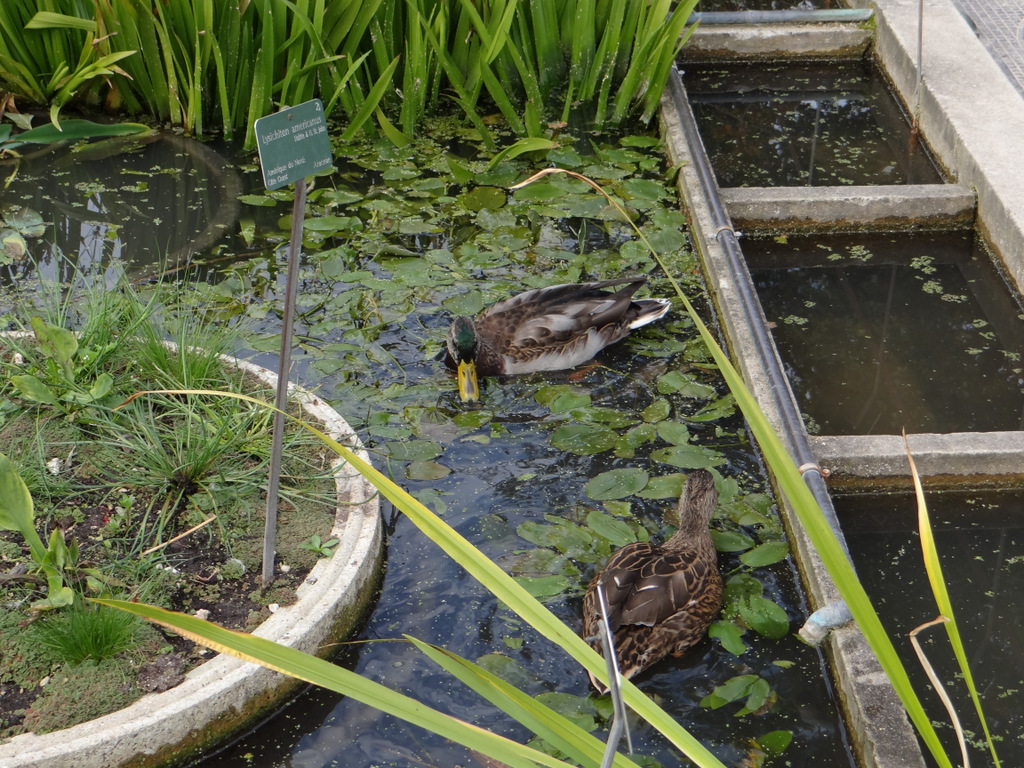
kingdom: Animalia
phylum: Chordata
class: Aves
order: Anseriformes
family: Anatidae
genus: Anas
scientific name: Anas platyrhynchos
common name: Mallard
